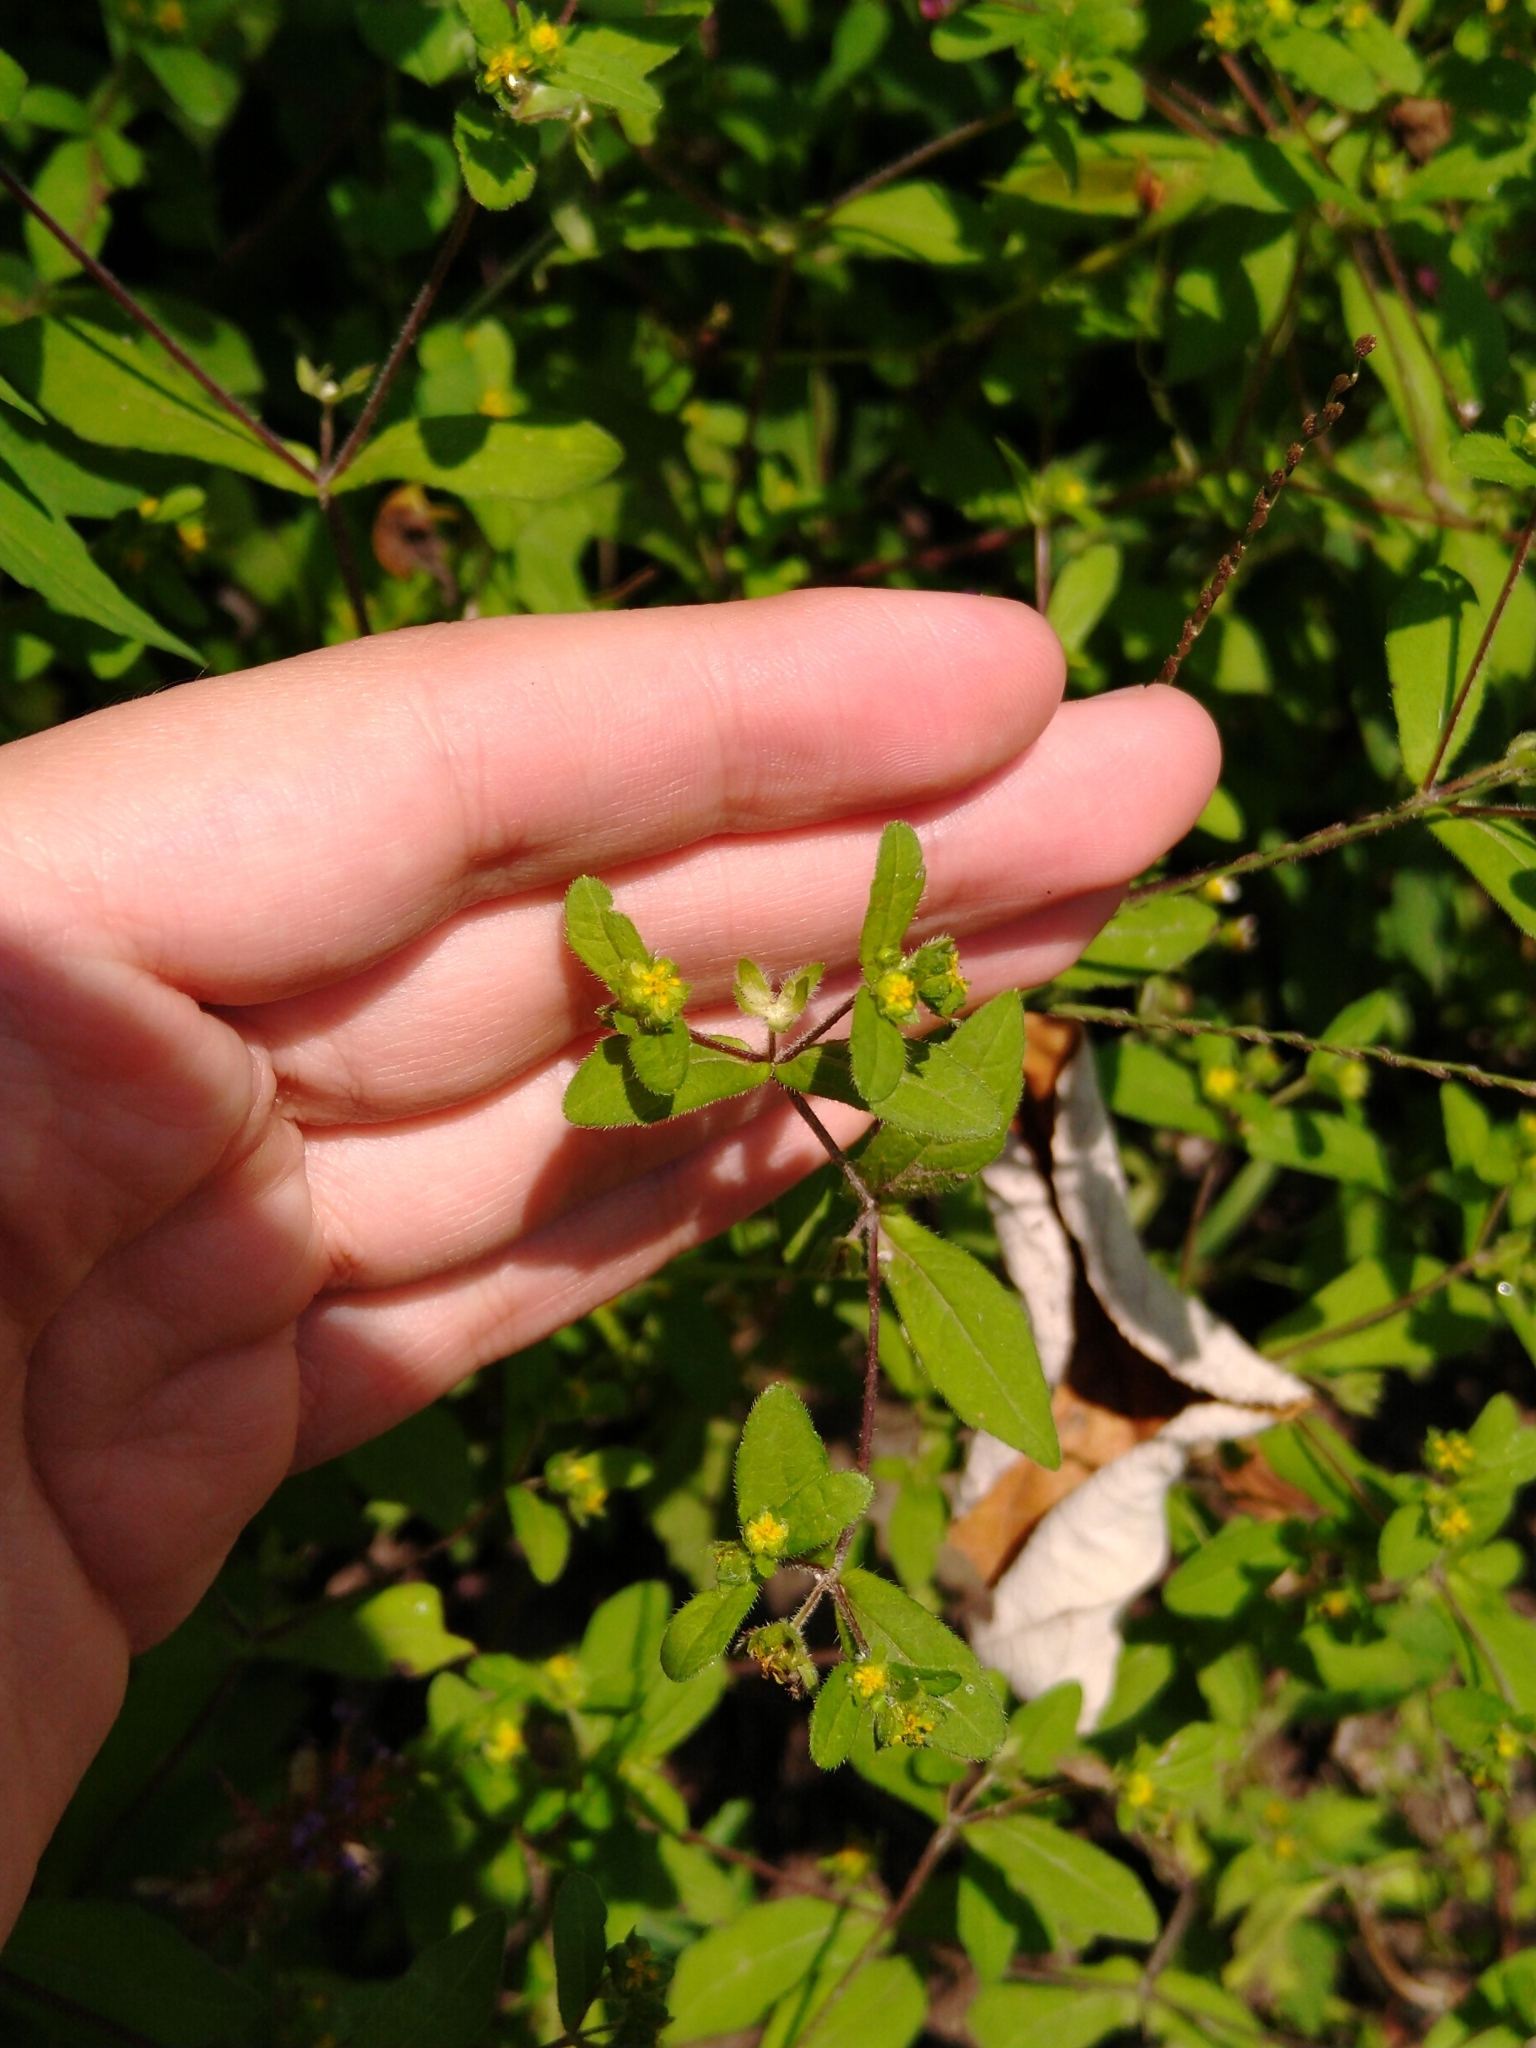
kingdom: Plantae
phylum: Tracheophyta
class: Magnoliopsida
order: Asterales
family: Asteraceae
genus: Melampodium
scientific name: Melampodium longifolium
